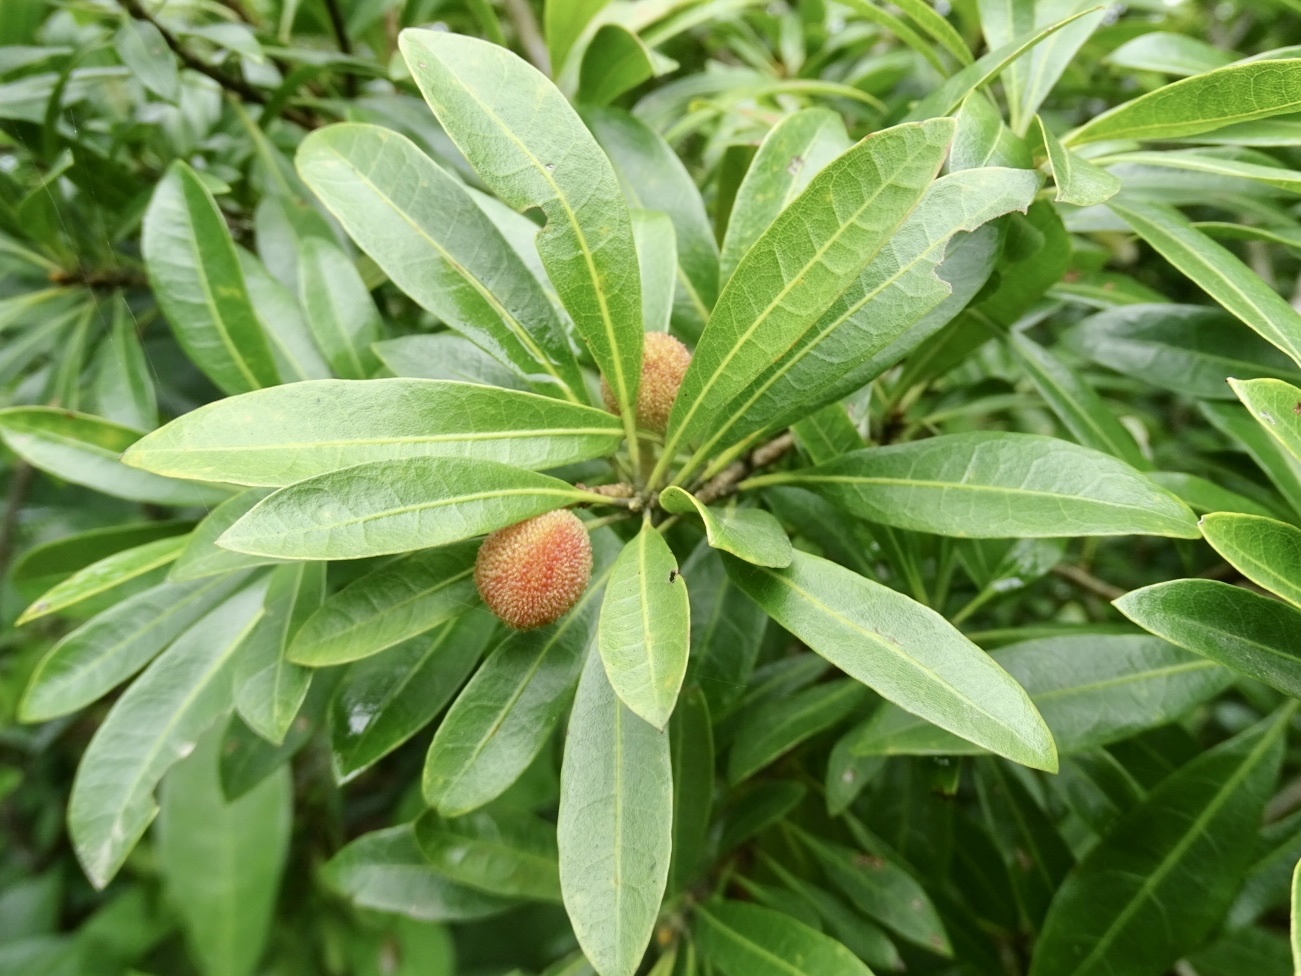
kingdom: Plantae
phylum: Tracheophyta
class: Magnoliopsida
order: Fagales
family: Myricaceae
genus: Morella
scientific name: Morella rubra
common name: Red bayberry
